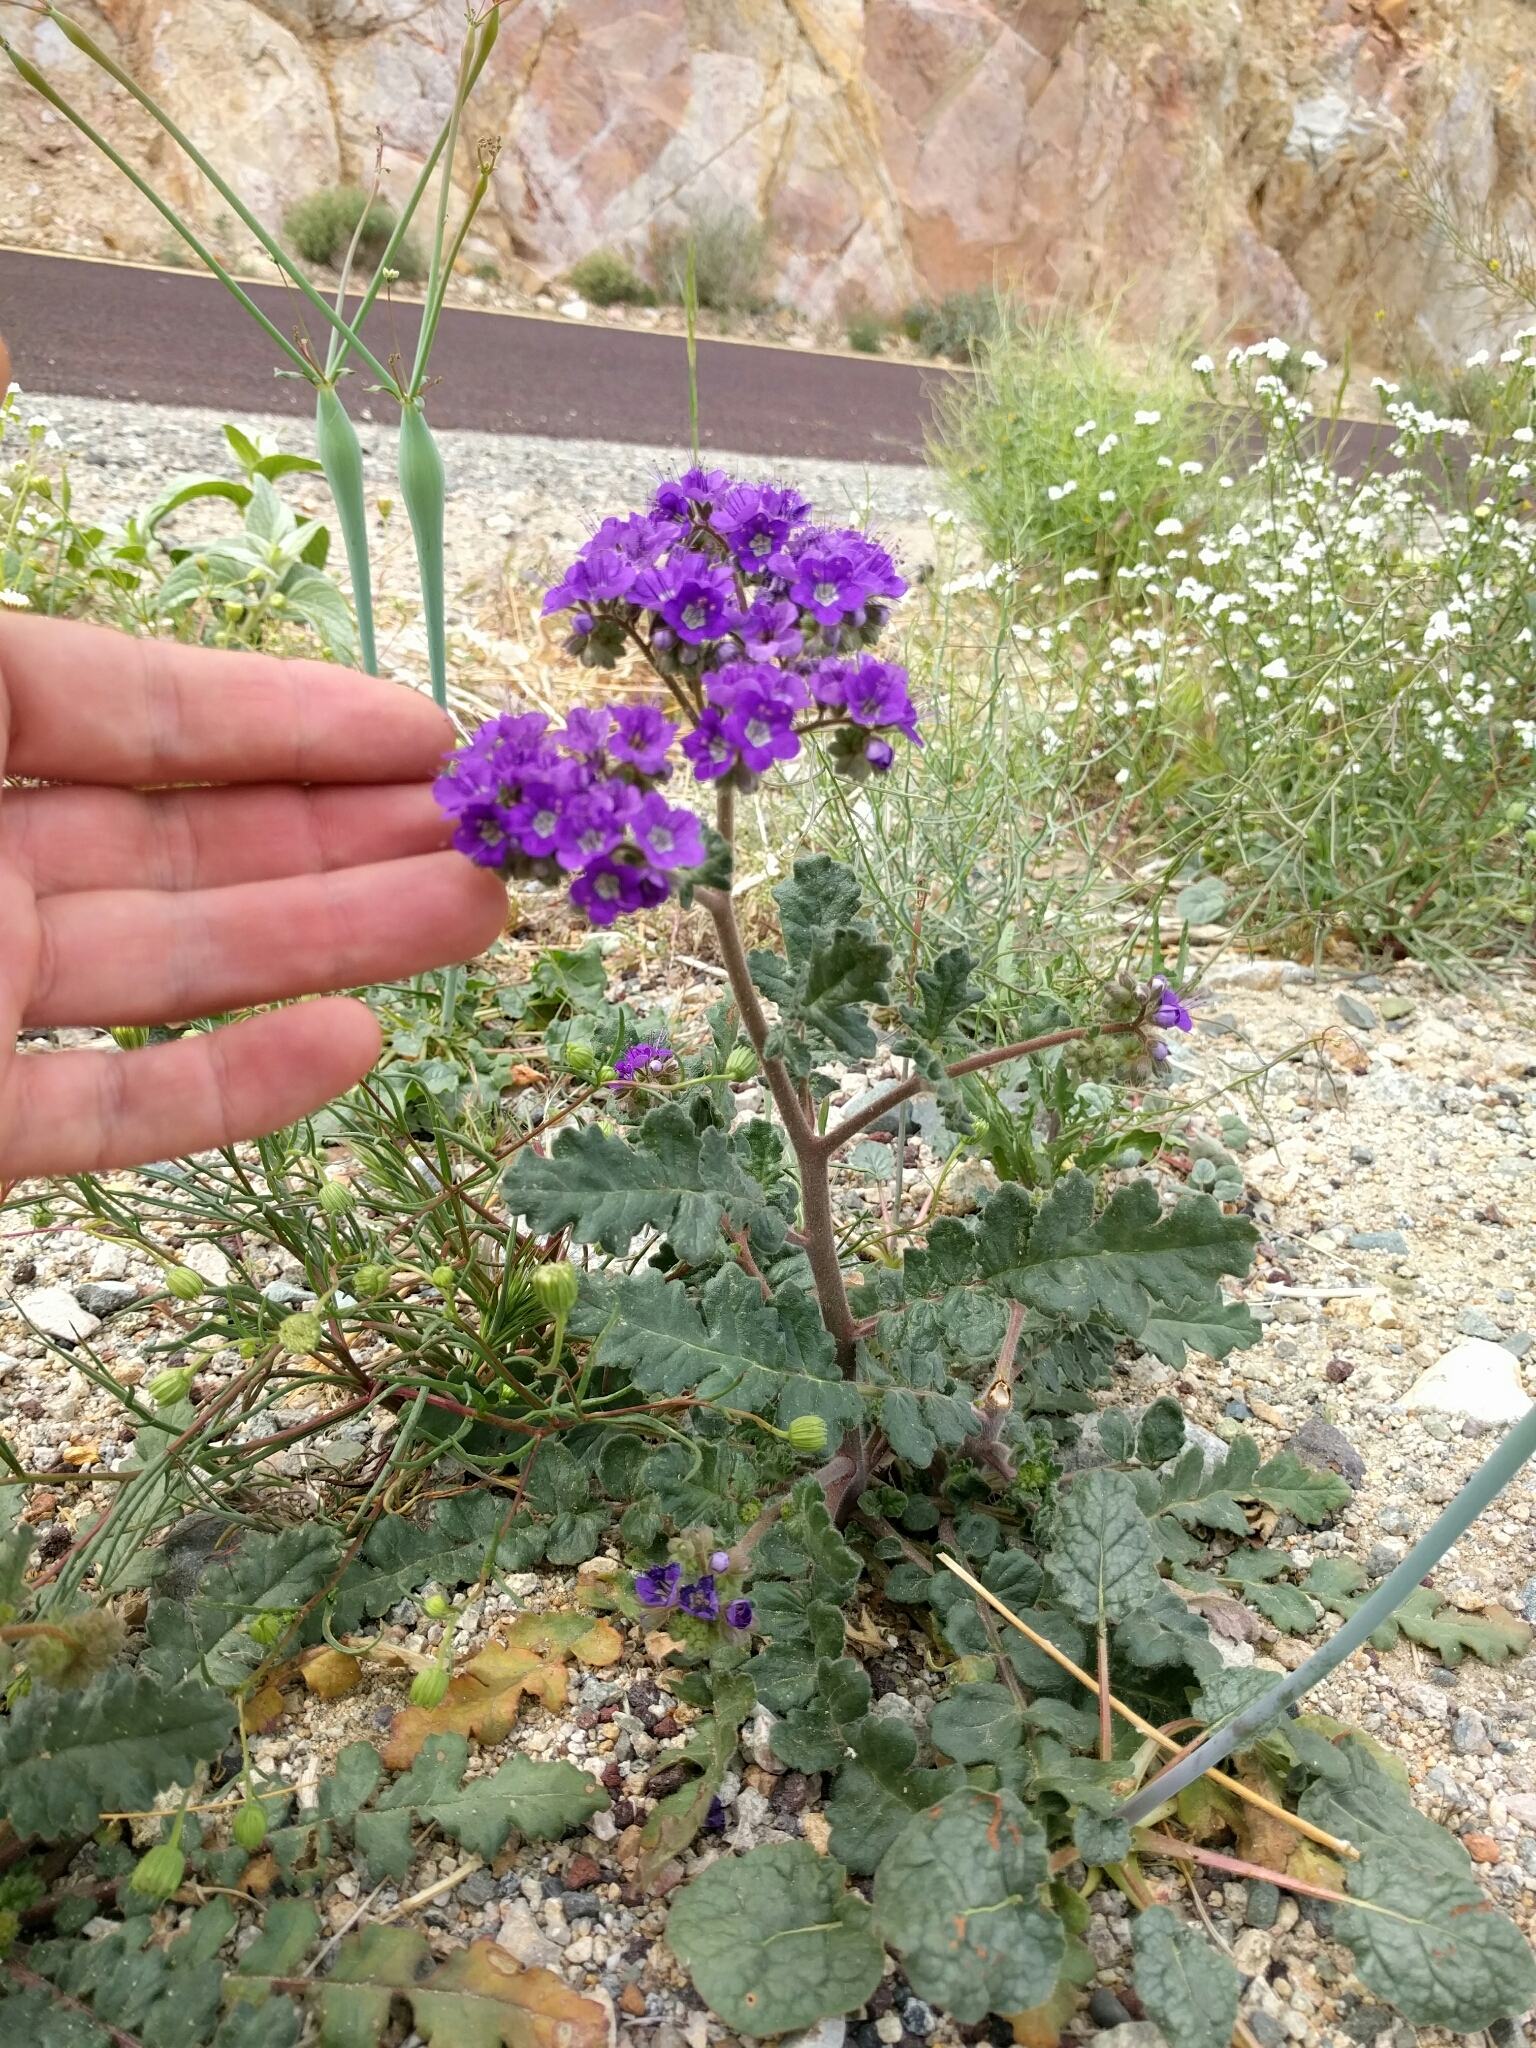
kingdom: Plantae
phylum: Tracheophyta
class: Magnoliopsida
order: Boraginales
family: Hydrophyllaceae
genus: Phacelia
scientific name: Phacelia crenulata
